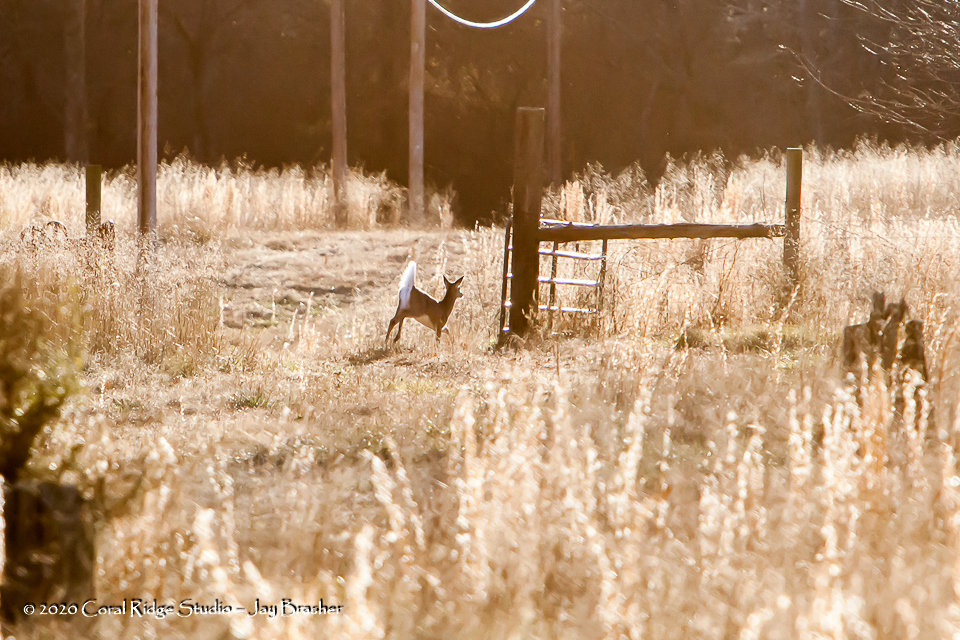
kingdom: Animalia
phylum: Chordata
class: Mammalia
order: Artiodactyla
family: Cervidae
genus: Odocoileus
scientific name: Odocoileus virginianus
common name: White-tailed deer
